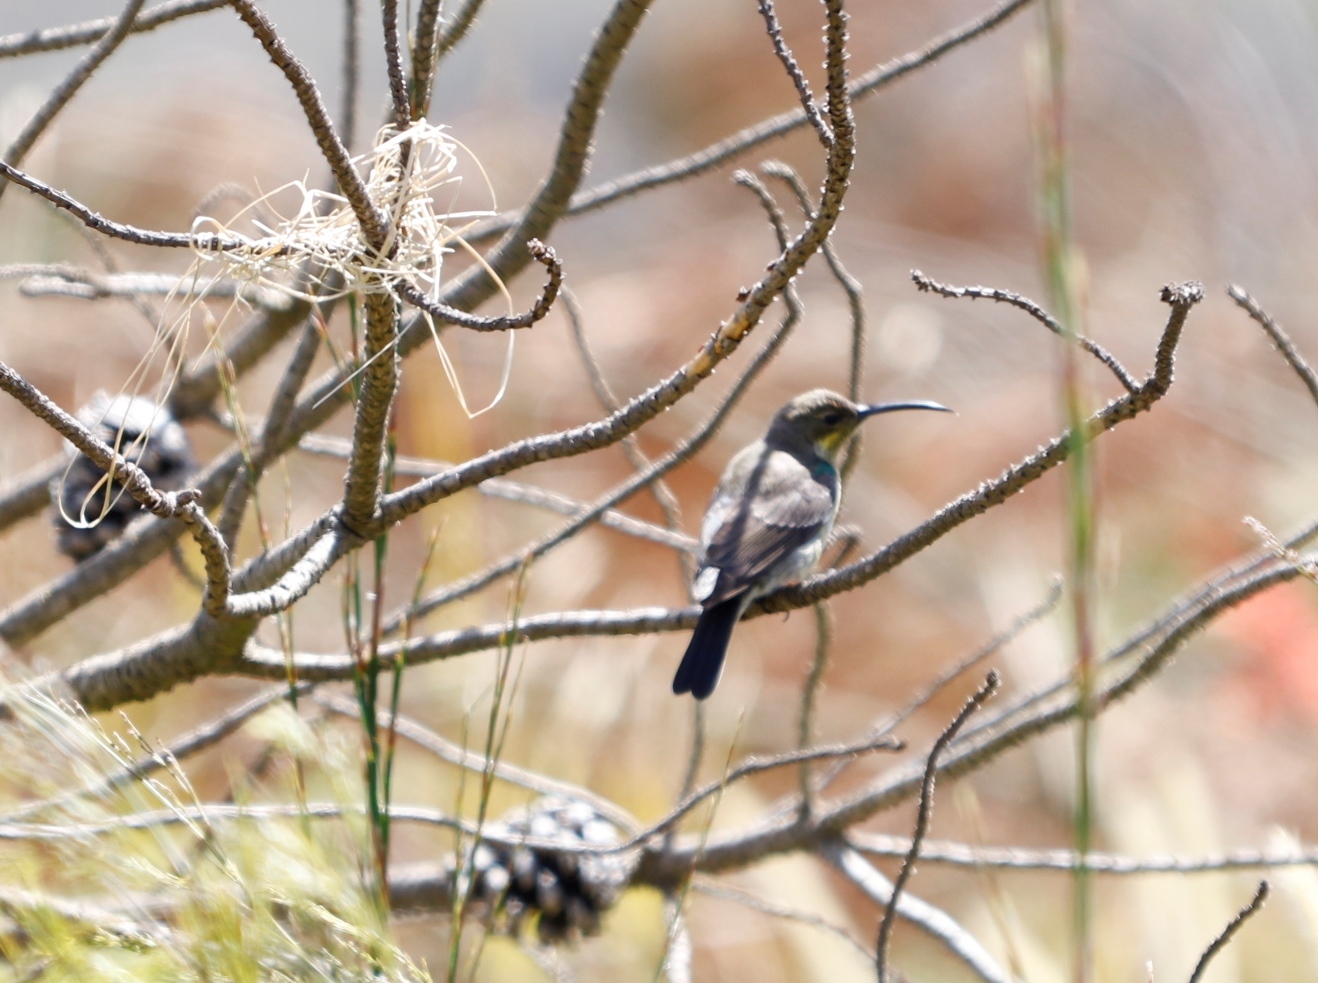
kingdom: Animalia
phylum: Chordata
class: Aves
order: Passeriformes
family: Nectariniidae
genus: Nectarinia
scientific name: Nectarinia famosa
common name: Malachite sunbird
